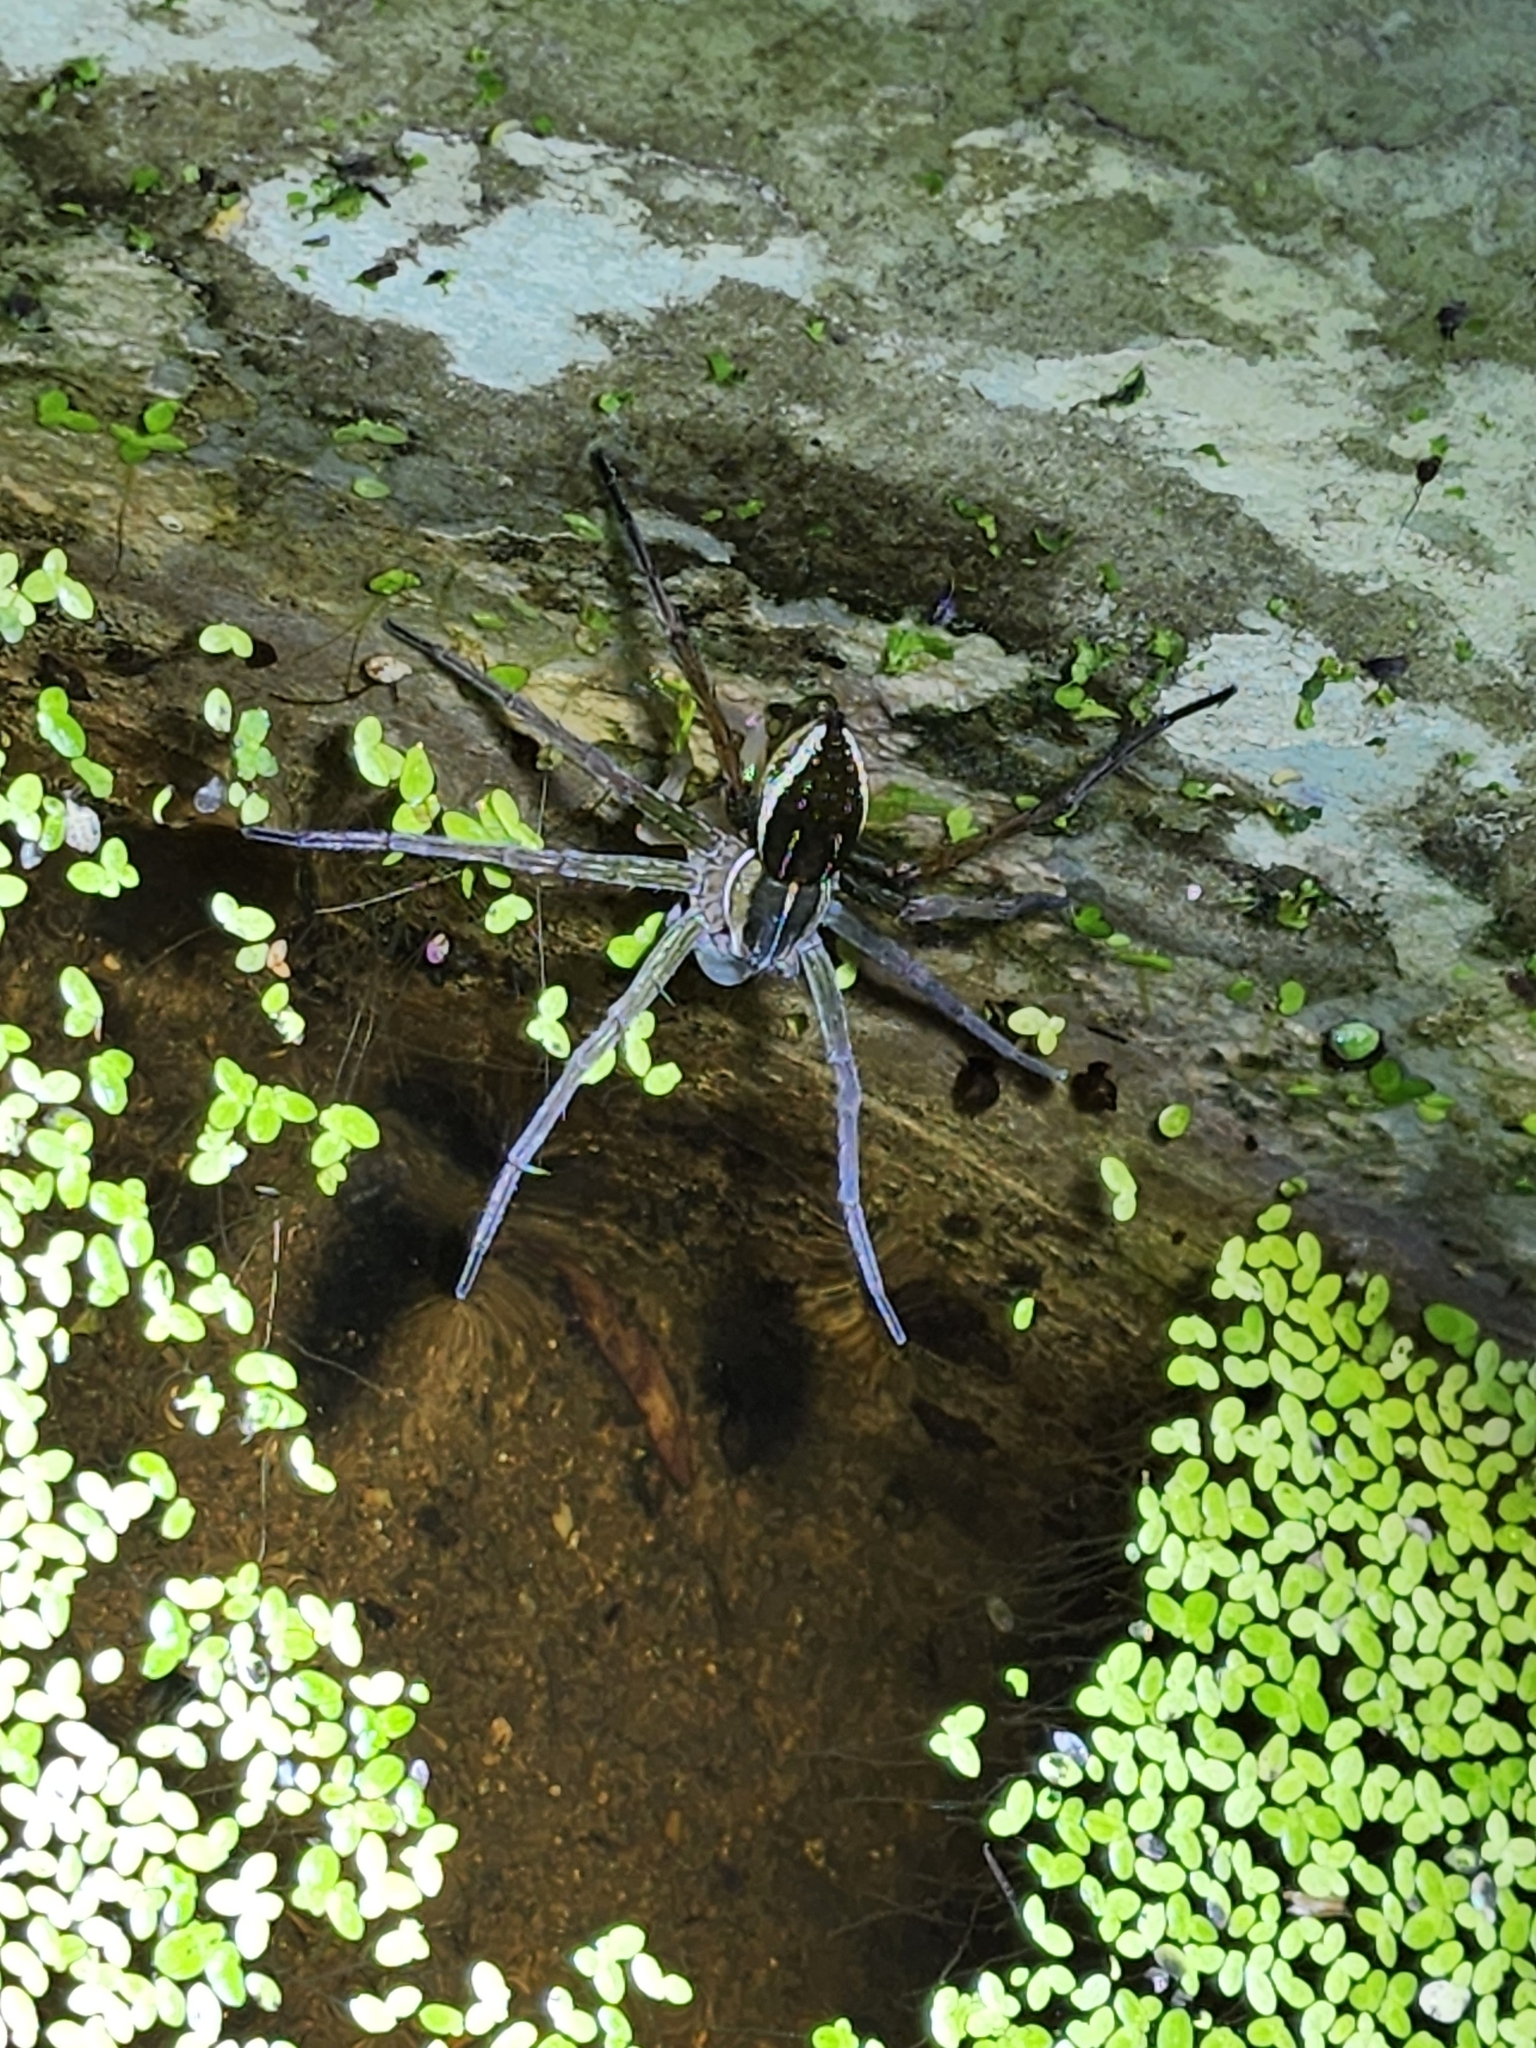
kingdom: Animalia
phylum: Arthropoda
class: Arachnida
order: Araneae
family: Pisauridae
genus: Dolomedes
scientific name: Dolomedes facetus
